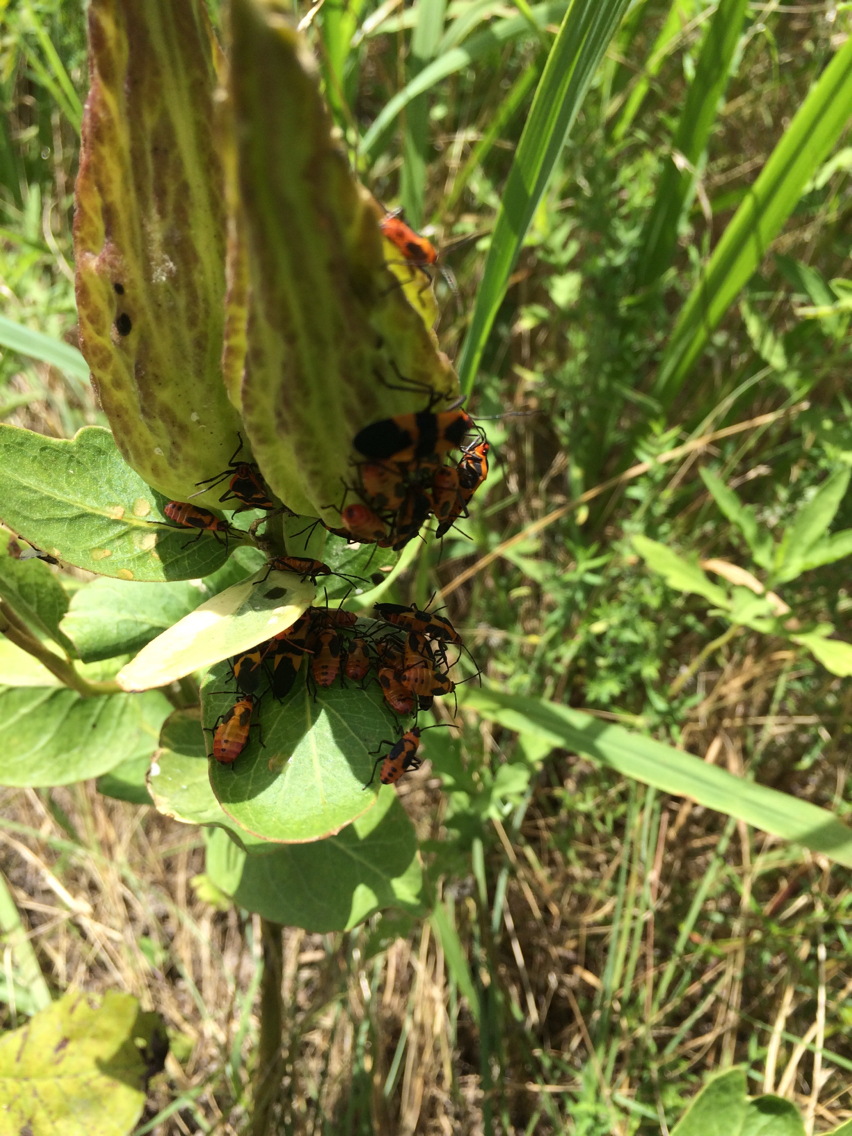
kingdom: Animalia
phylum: Arthropoda
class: Insecta
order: Hemiptera
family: Lygaeidae
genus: Oncopeltus
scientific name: Oncopeltus fasciatus
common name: Large milkweed bug
